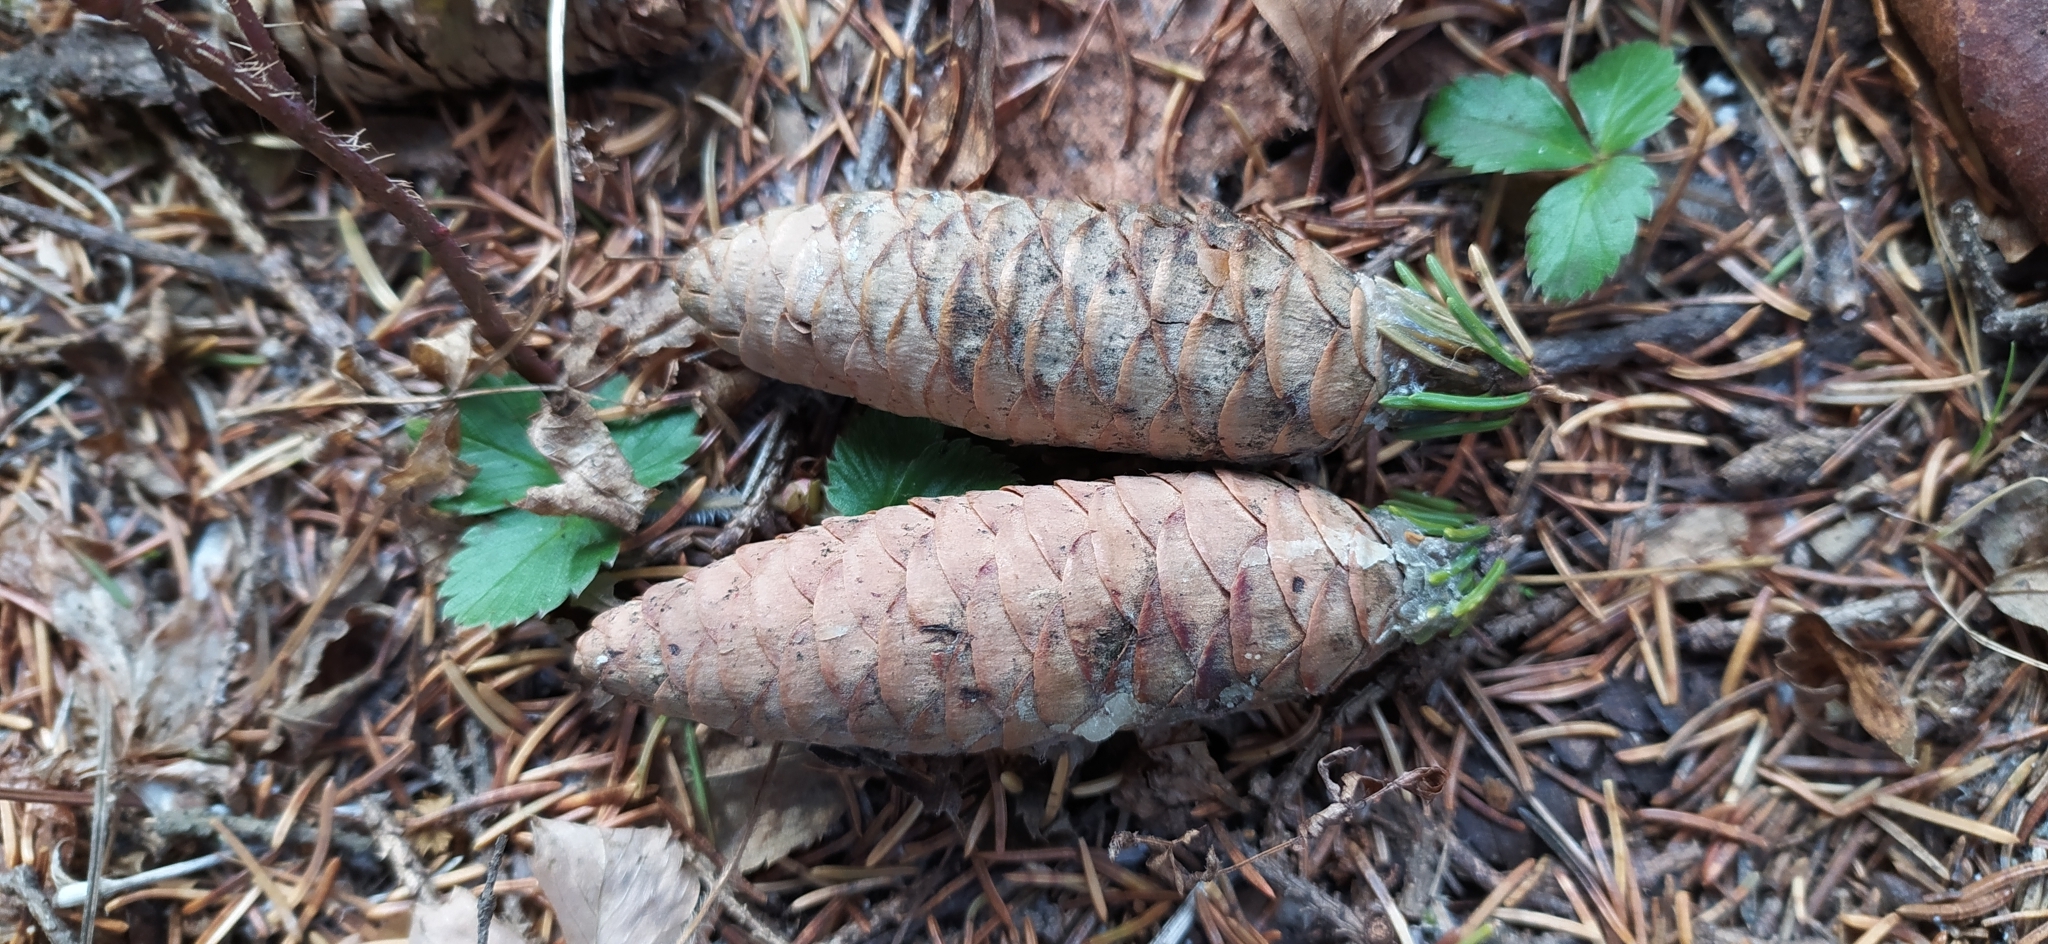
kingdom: Plantae
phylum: Tracheophyta
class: Pinopsida
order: Pinales
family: Pinaceae
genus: Picea
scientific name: Picea obovata
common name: Siberian spruce
